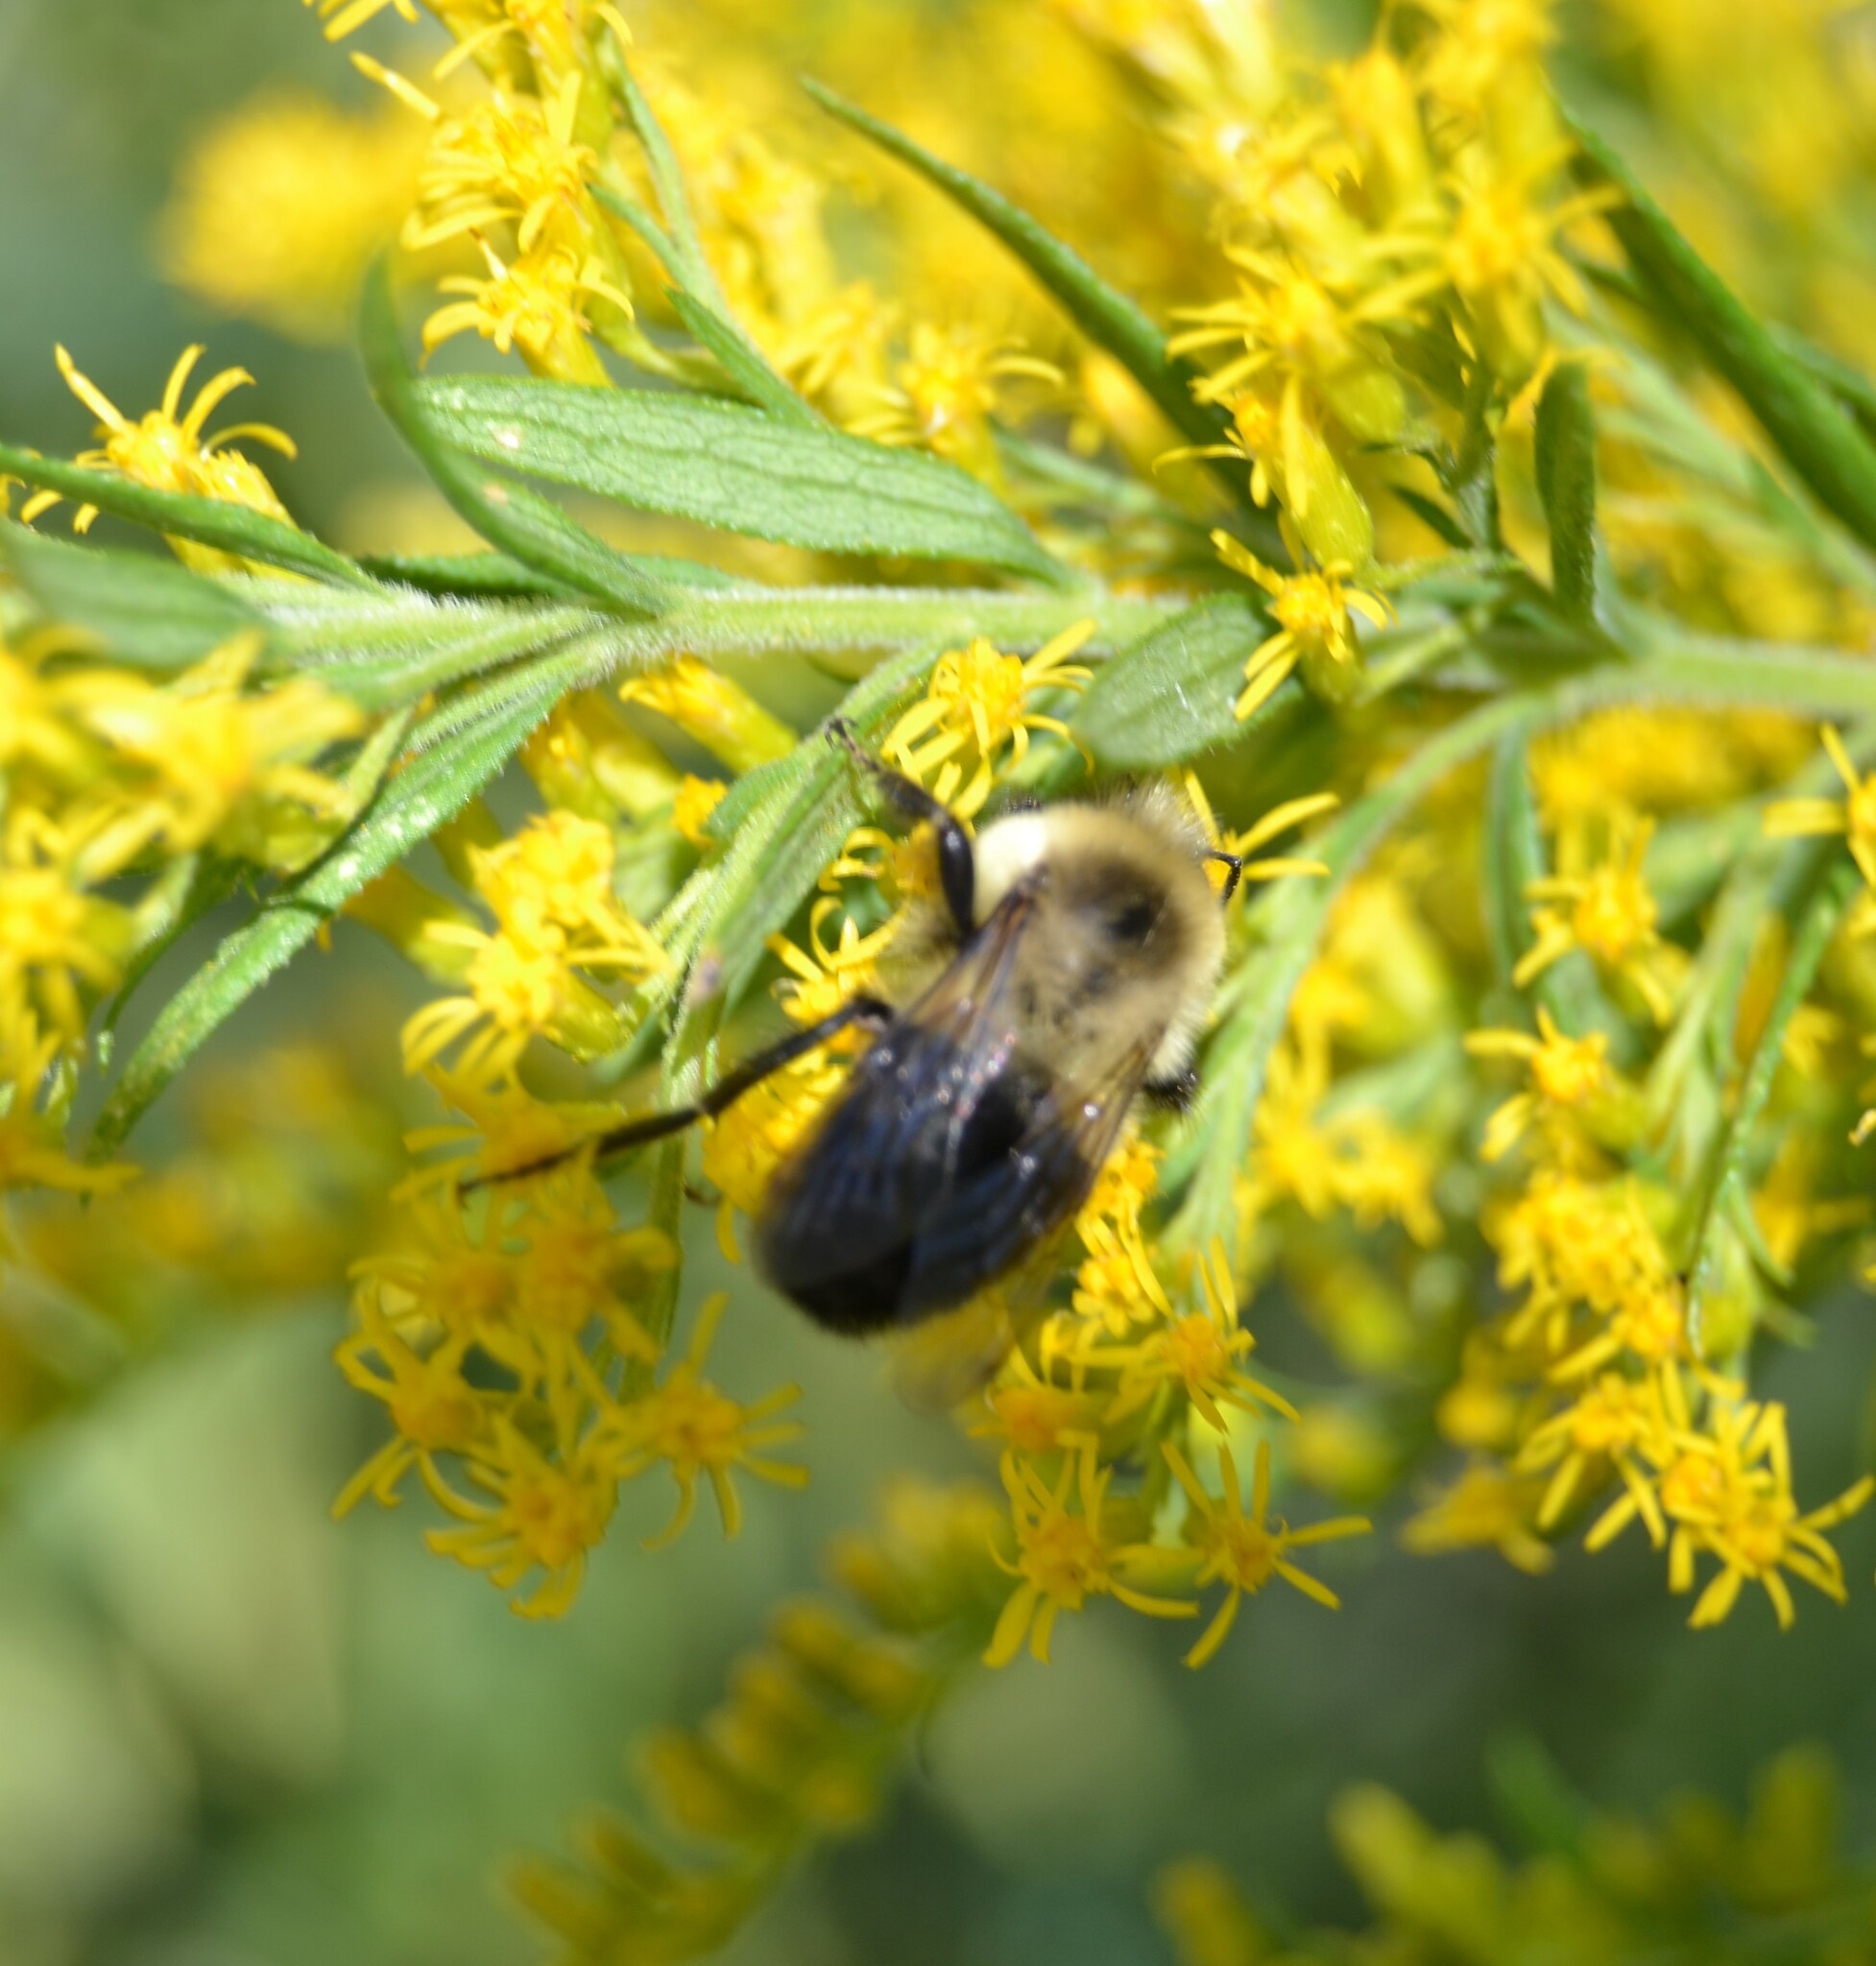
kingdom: Animalia
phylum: Arthropoda
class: Insecta
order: Hymenoptera
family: Apidae
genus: Bombus
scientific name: Bombus impatiens
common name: Common eastern bumble bee
